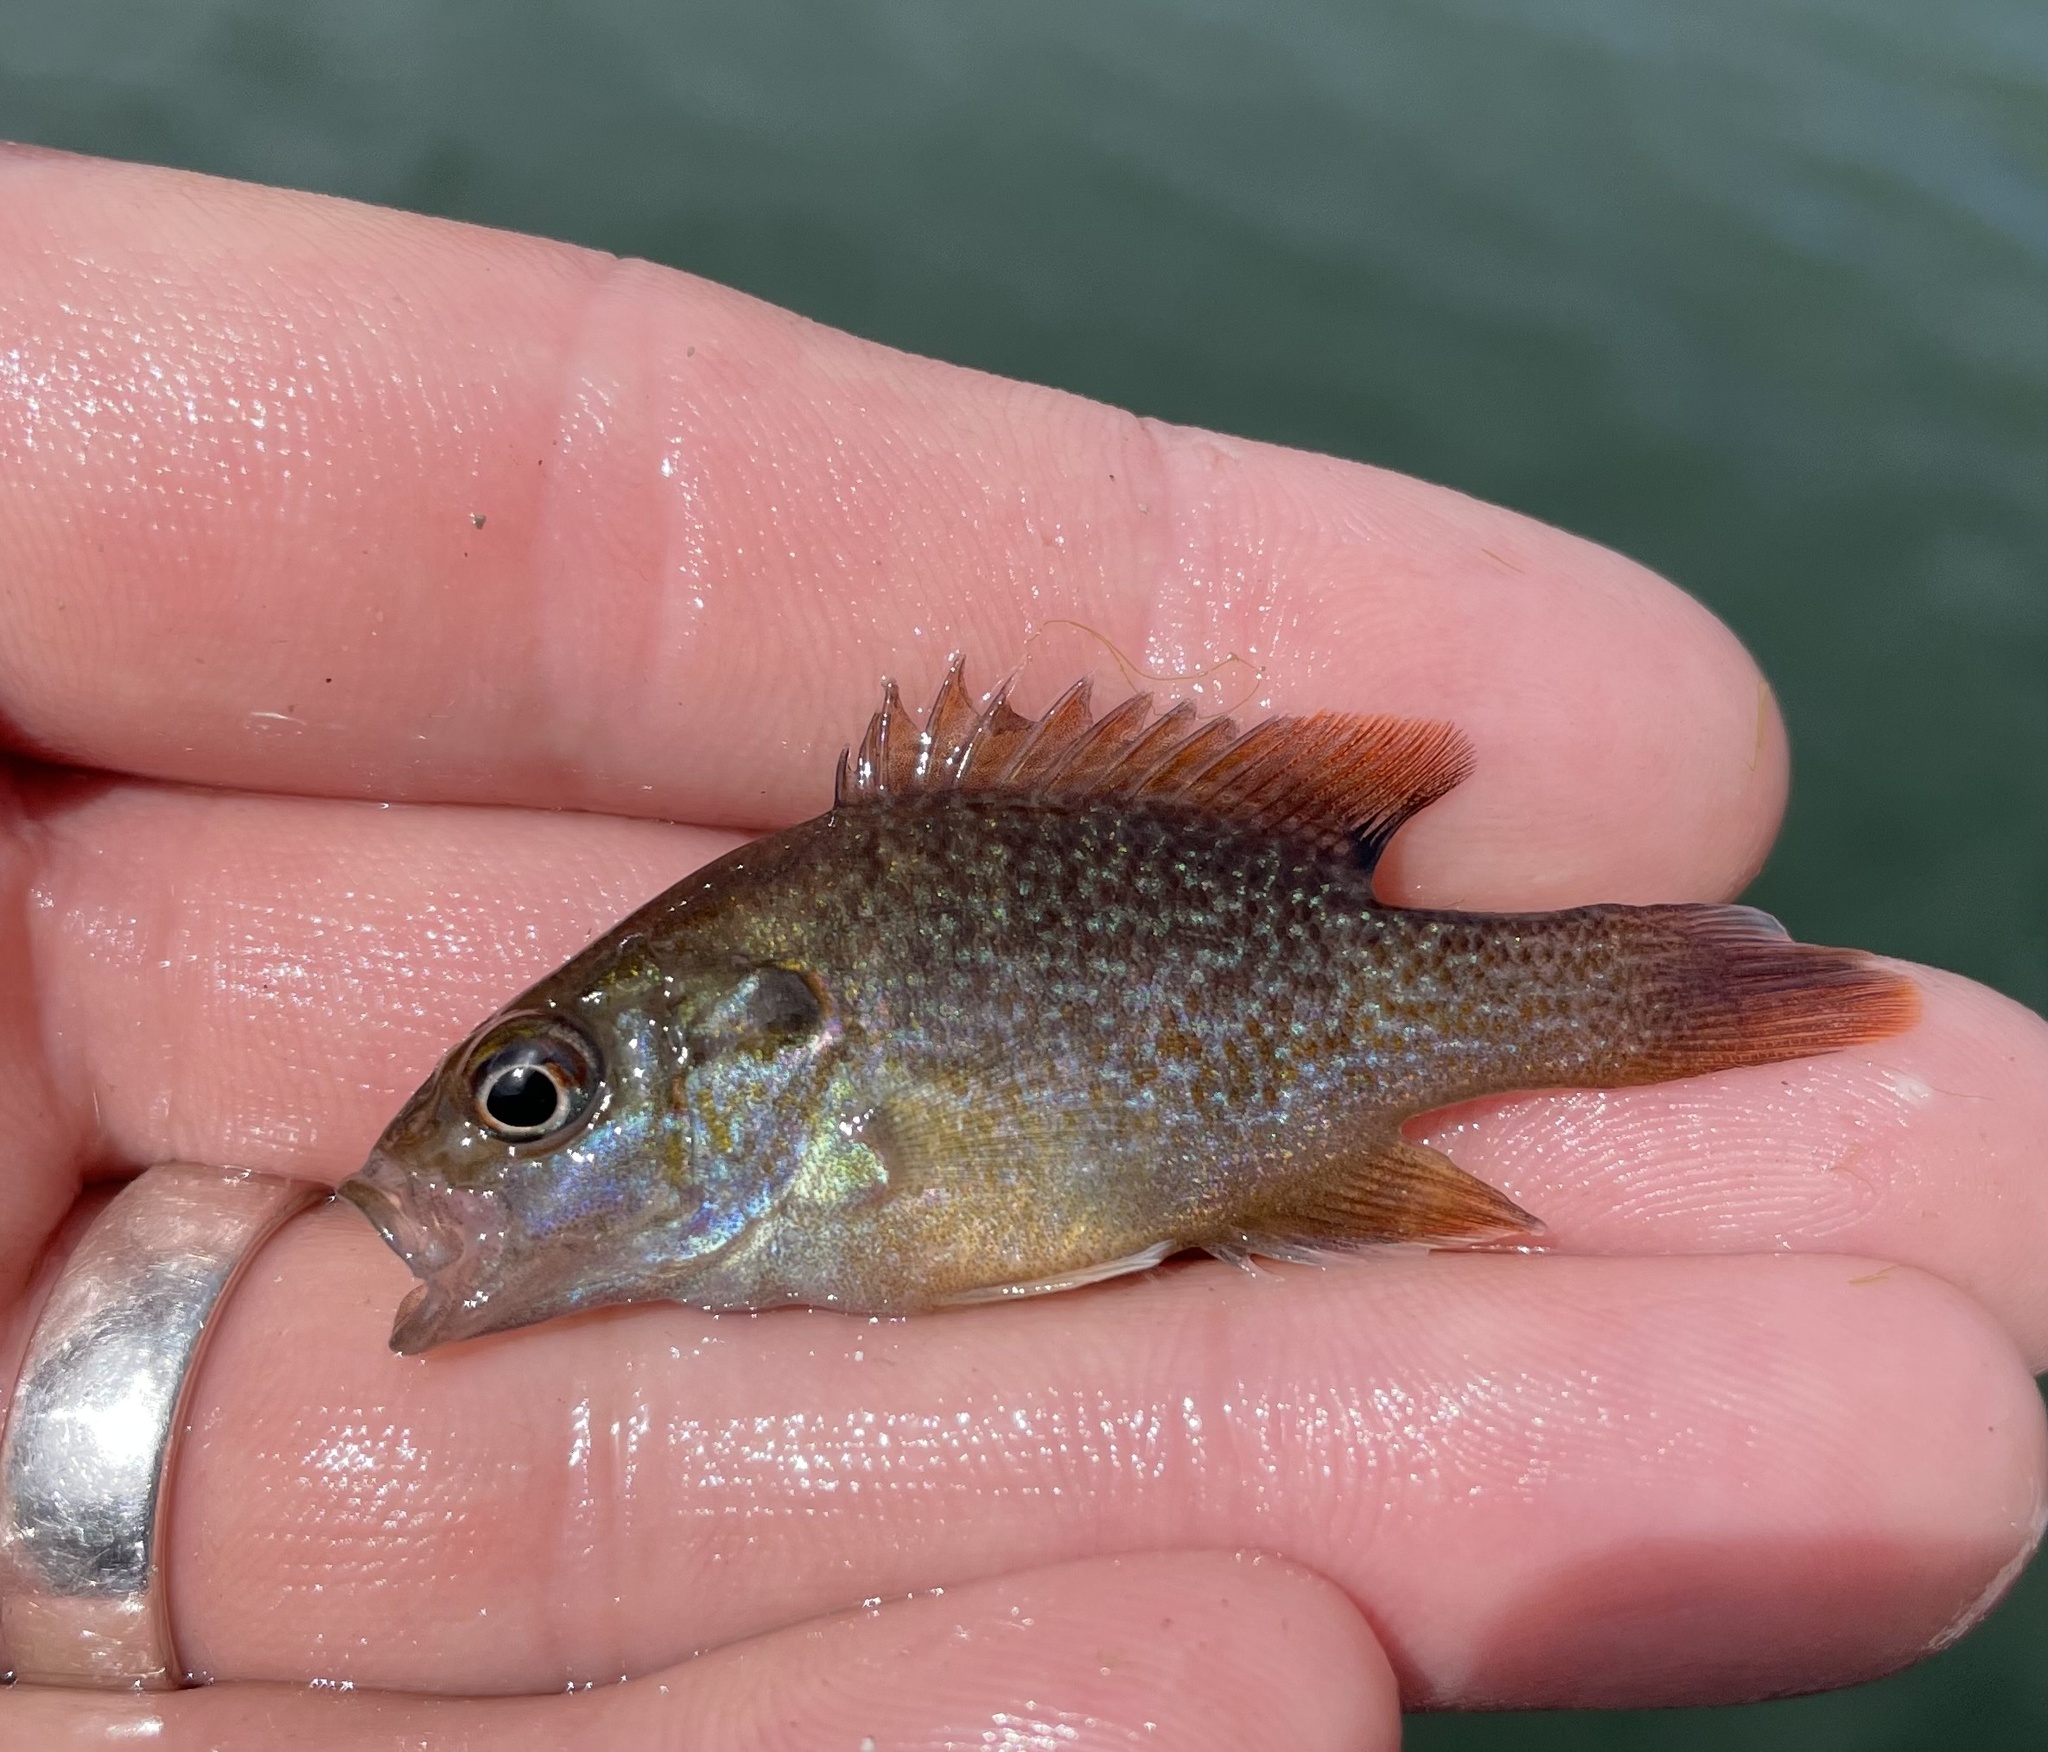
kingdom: Animalia
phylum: Chordata
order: Perciformes
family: Centrarchidae
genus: Lepomis
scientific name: Lepomis cyanellus
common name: Green sunfish
